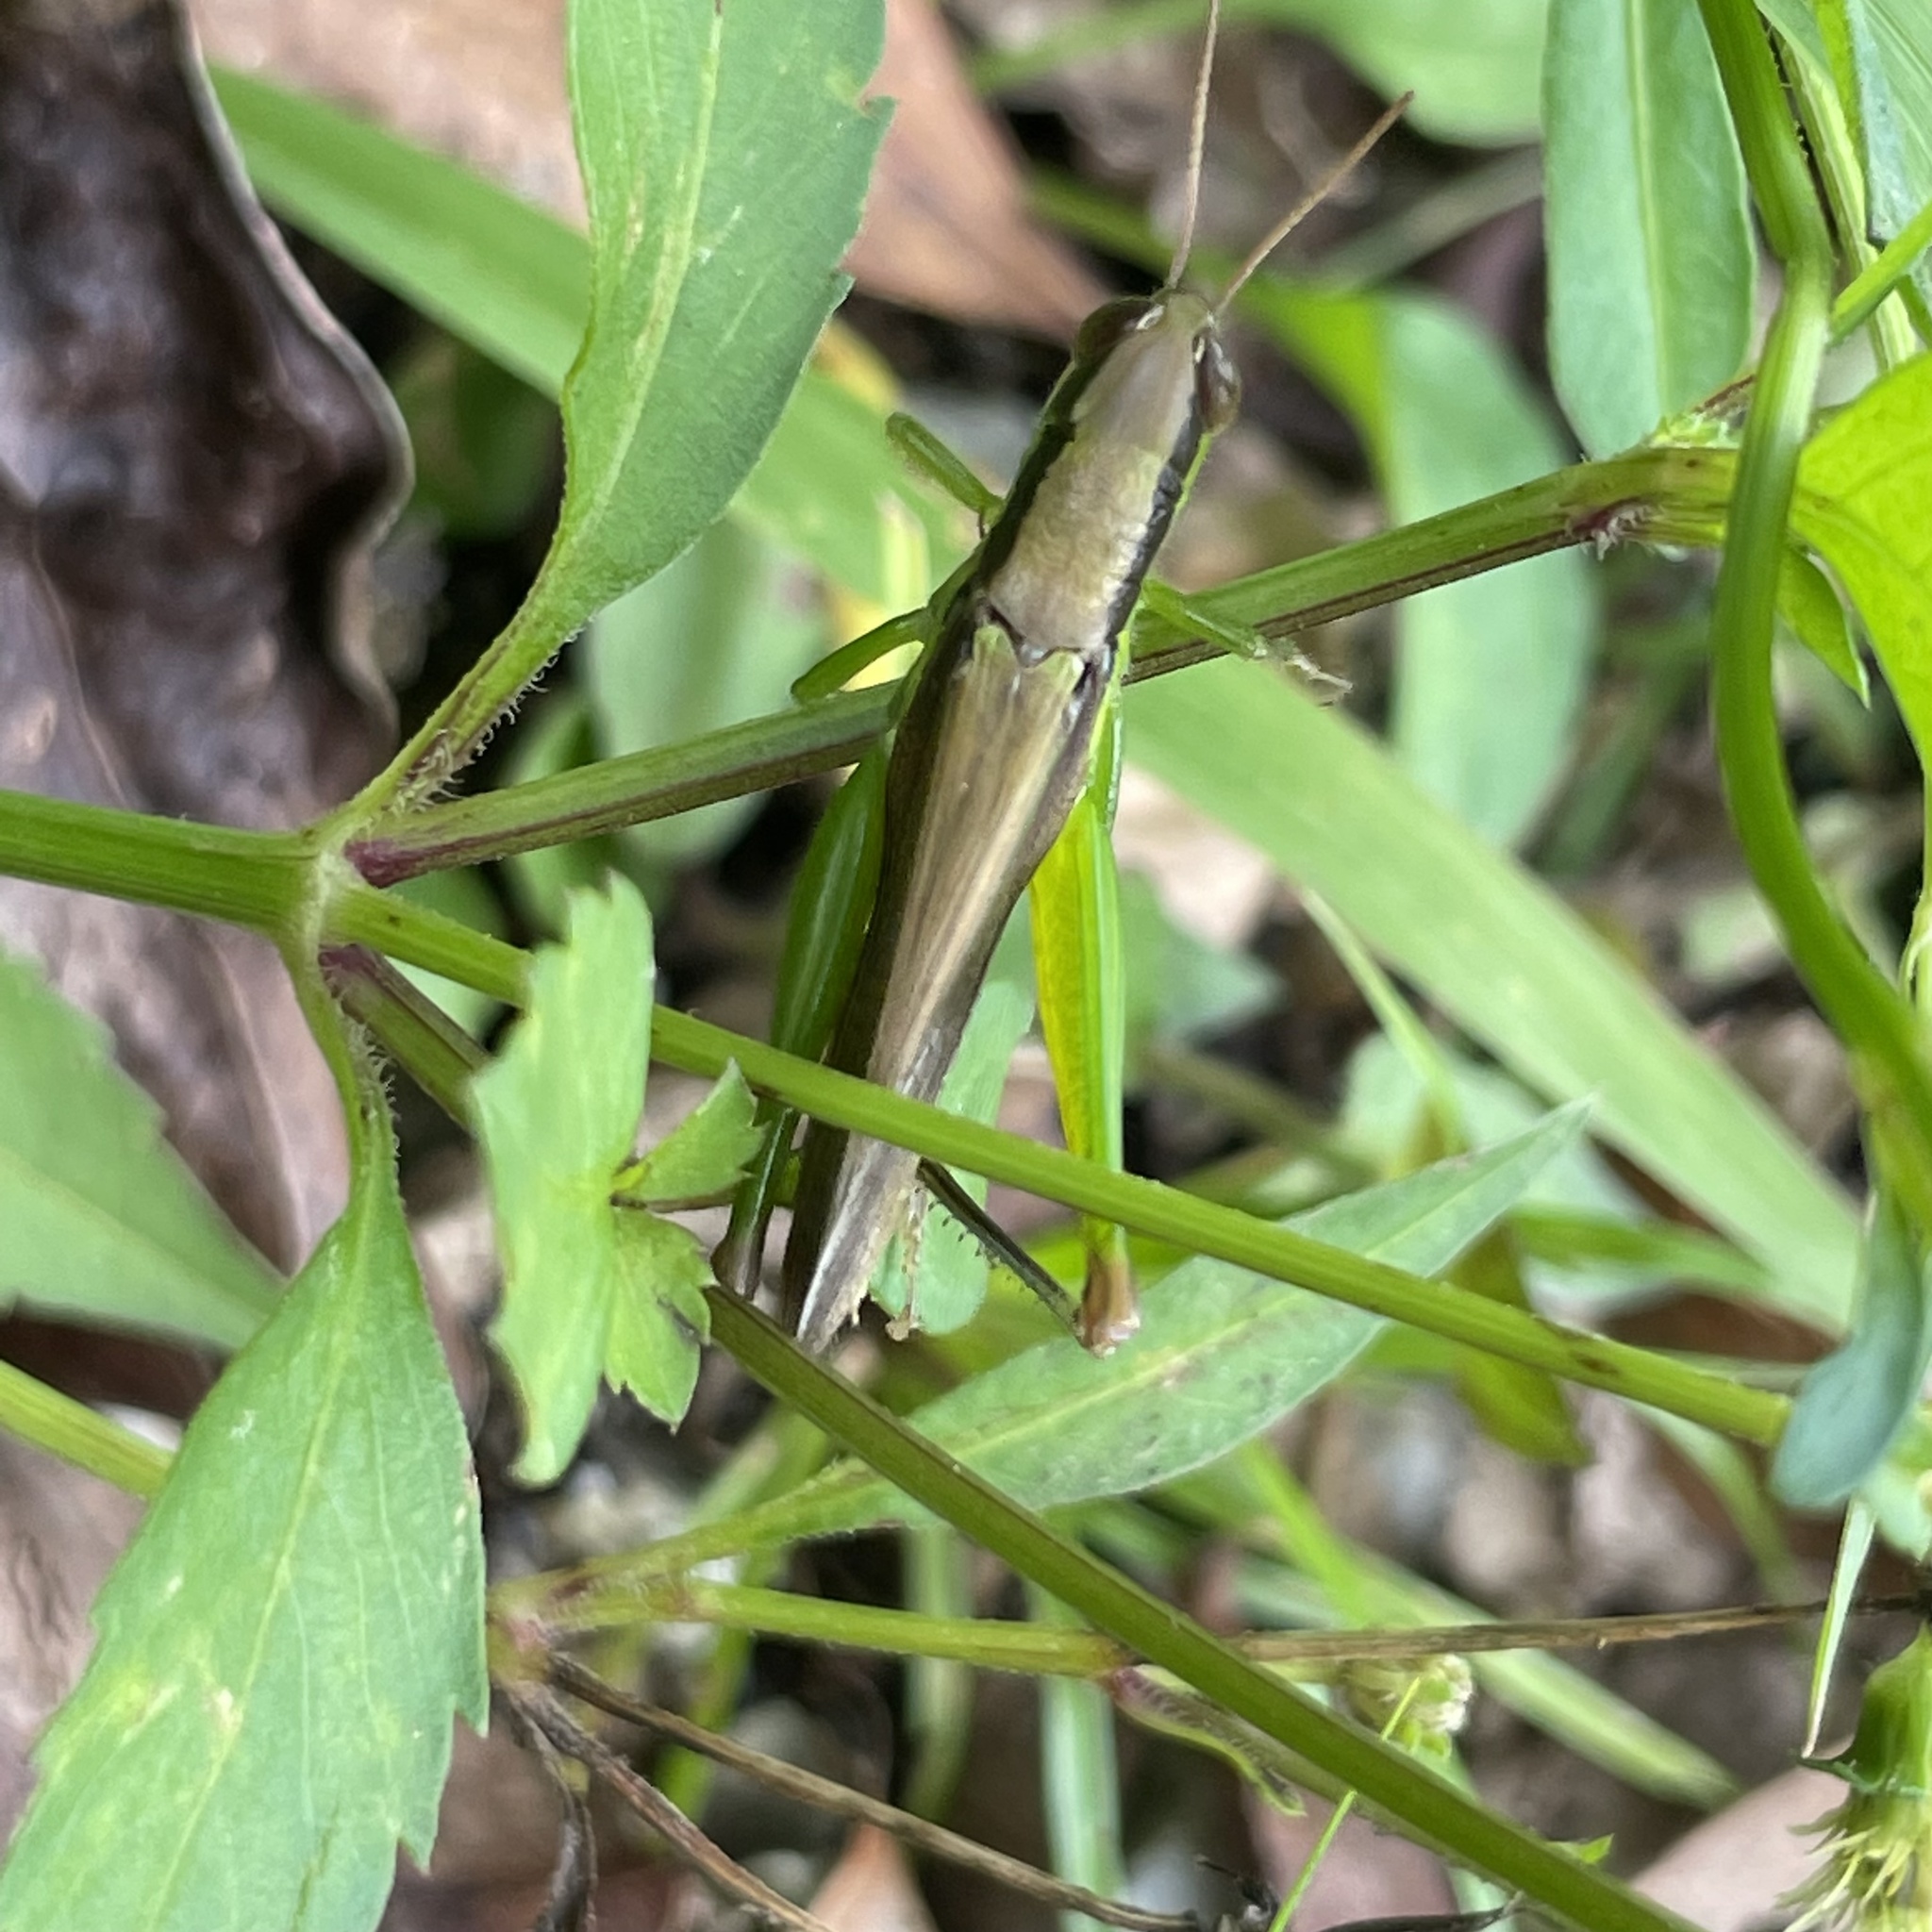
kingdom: Animalia
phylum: Arthropoda
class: Insecta
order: Orthoptera
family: Acrididae
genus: Oxya
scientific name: Oxya intricata
